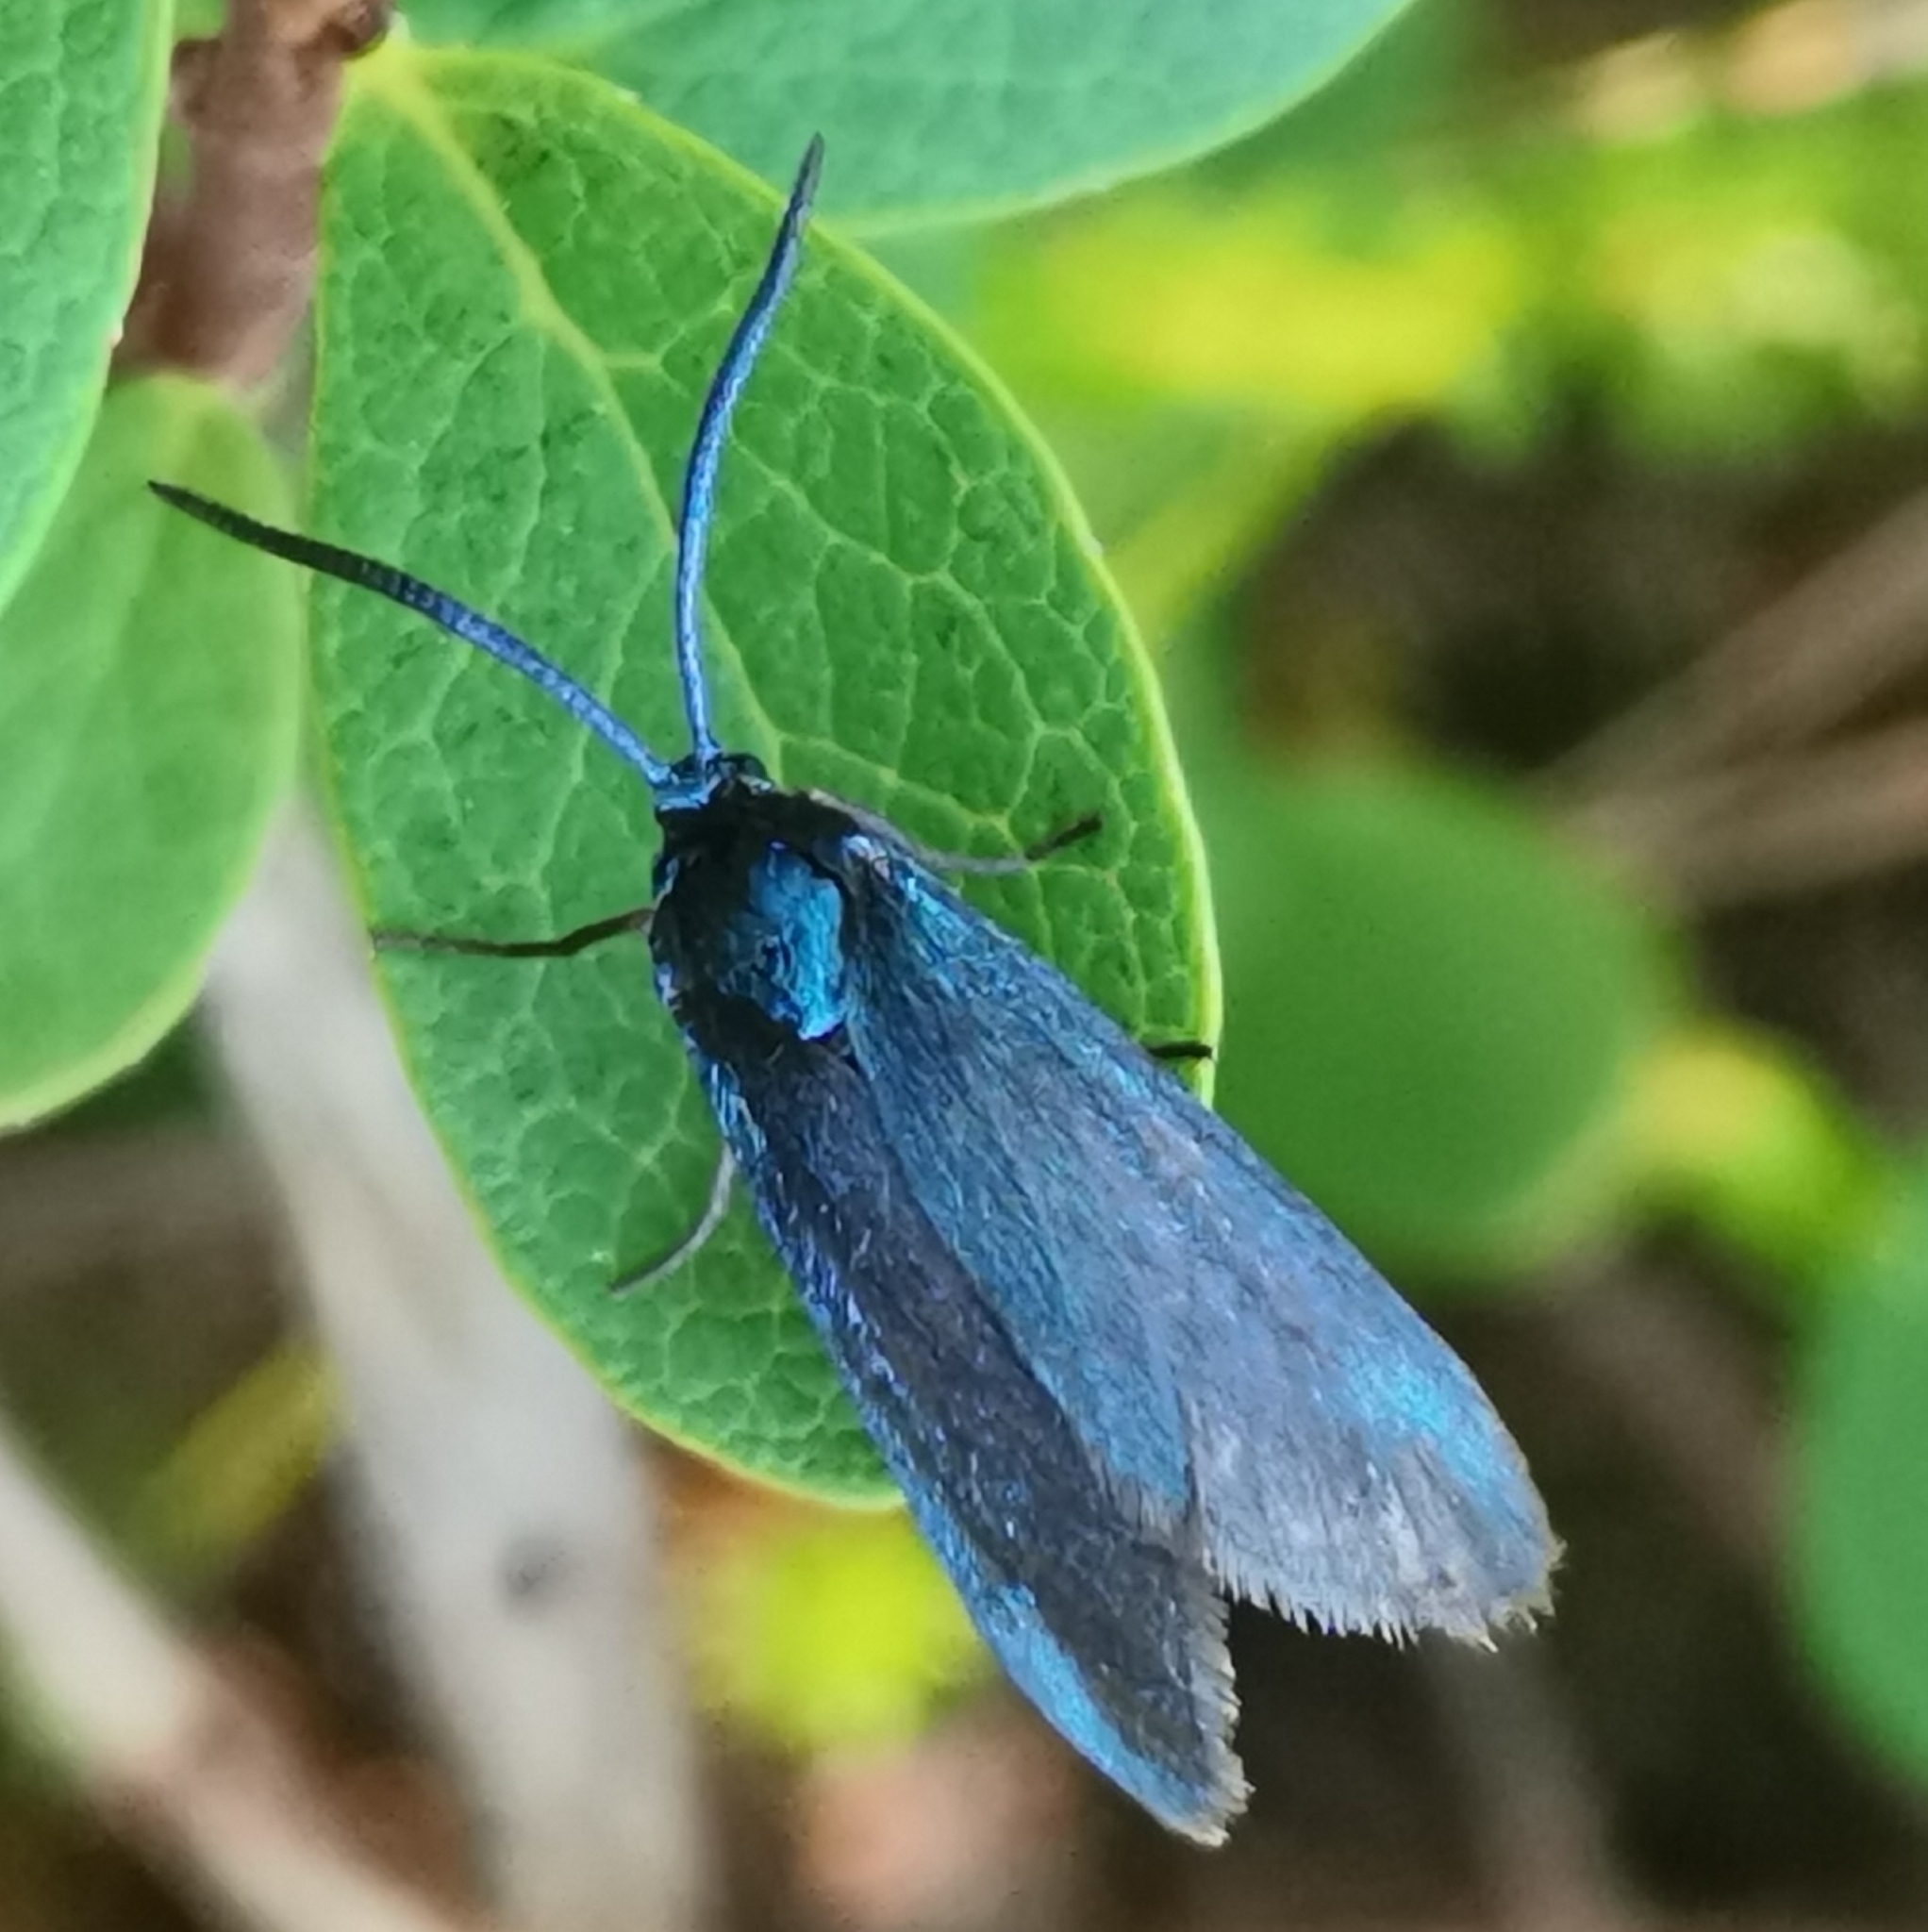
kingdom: Animalia
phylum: Arthropoda
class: Insecta
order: Lepidoptera
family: Zygaenidae
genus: Rhagades
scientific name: Rhagades pruni
